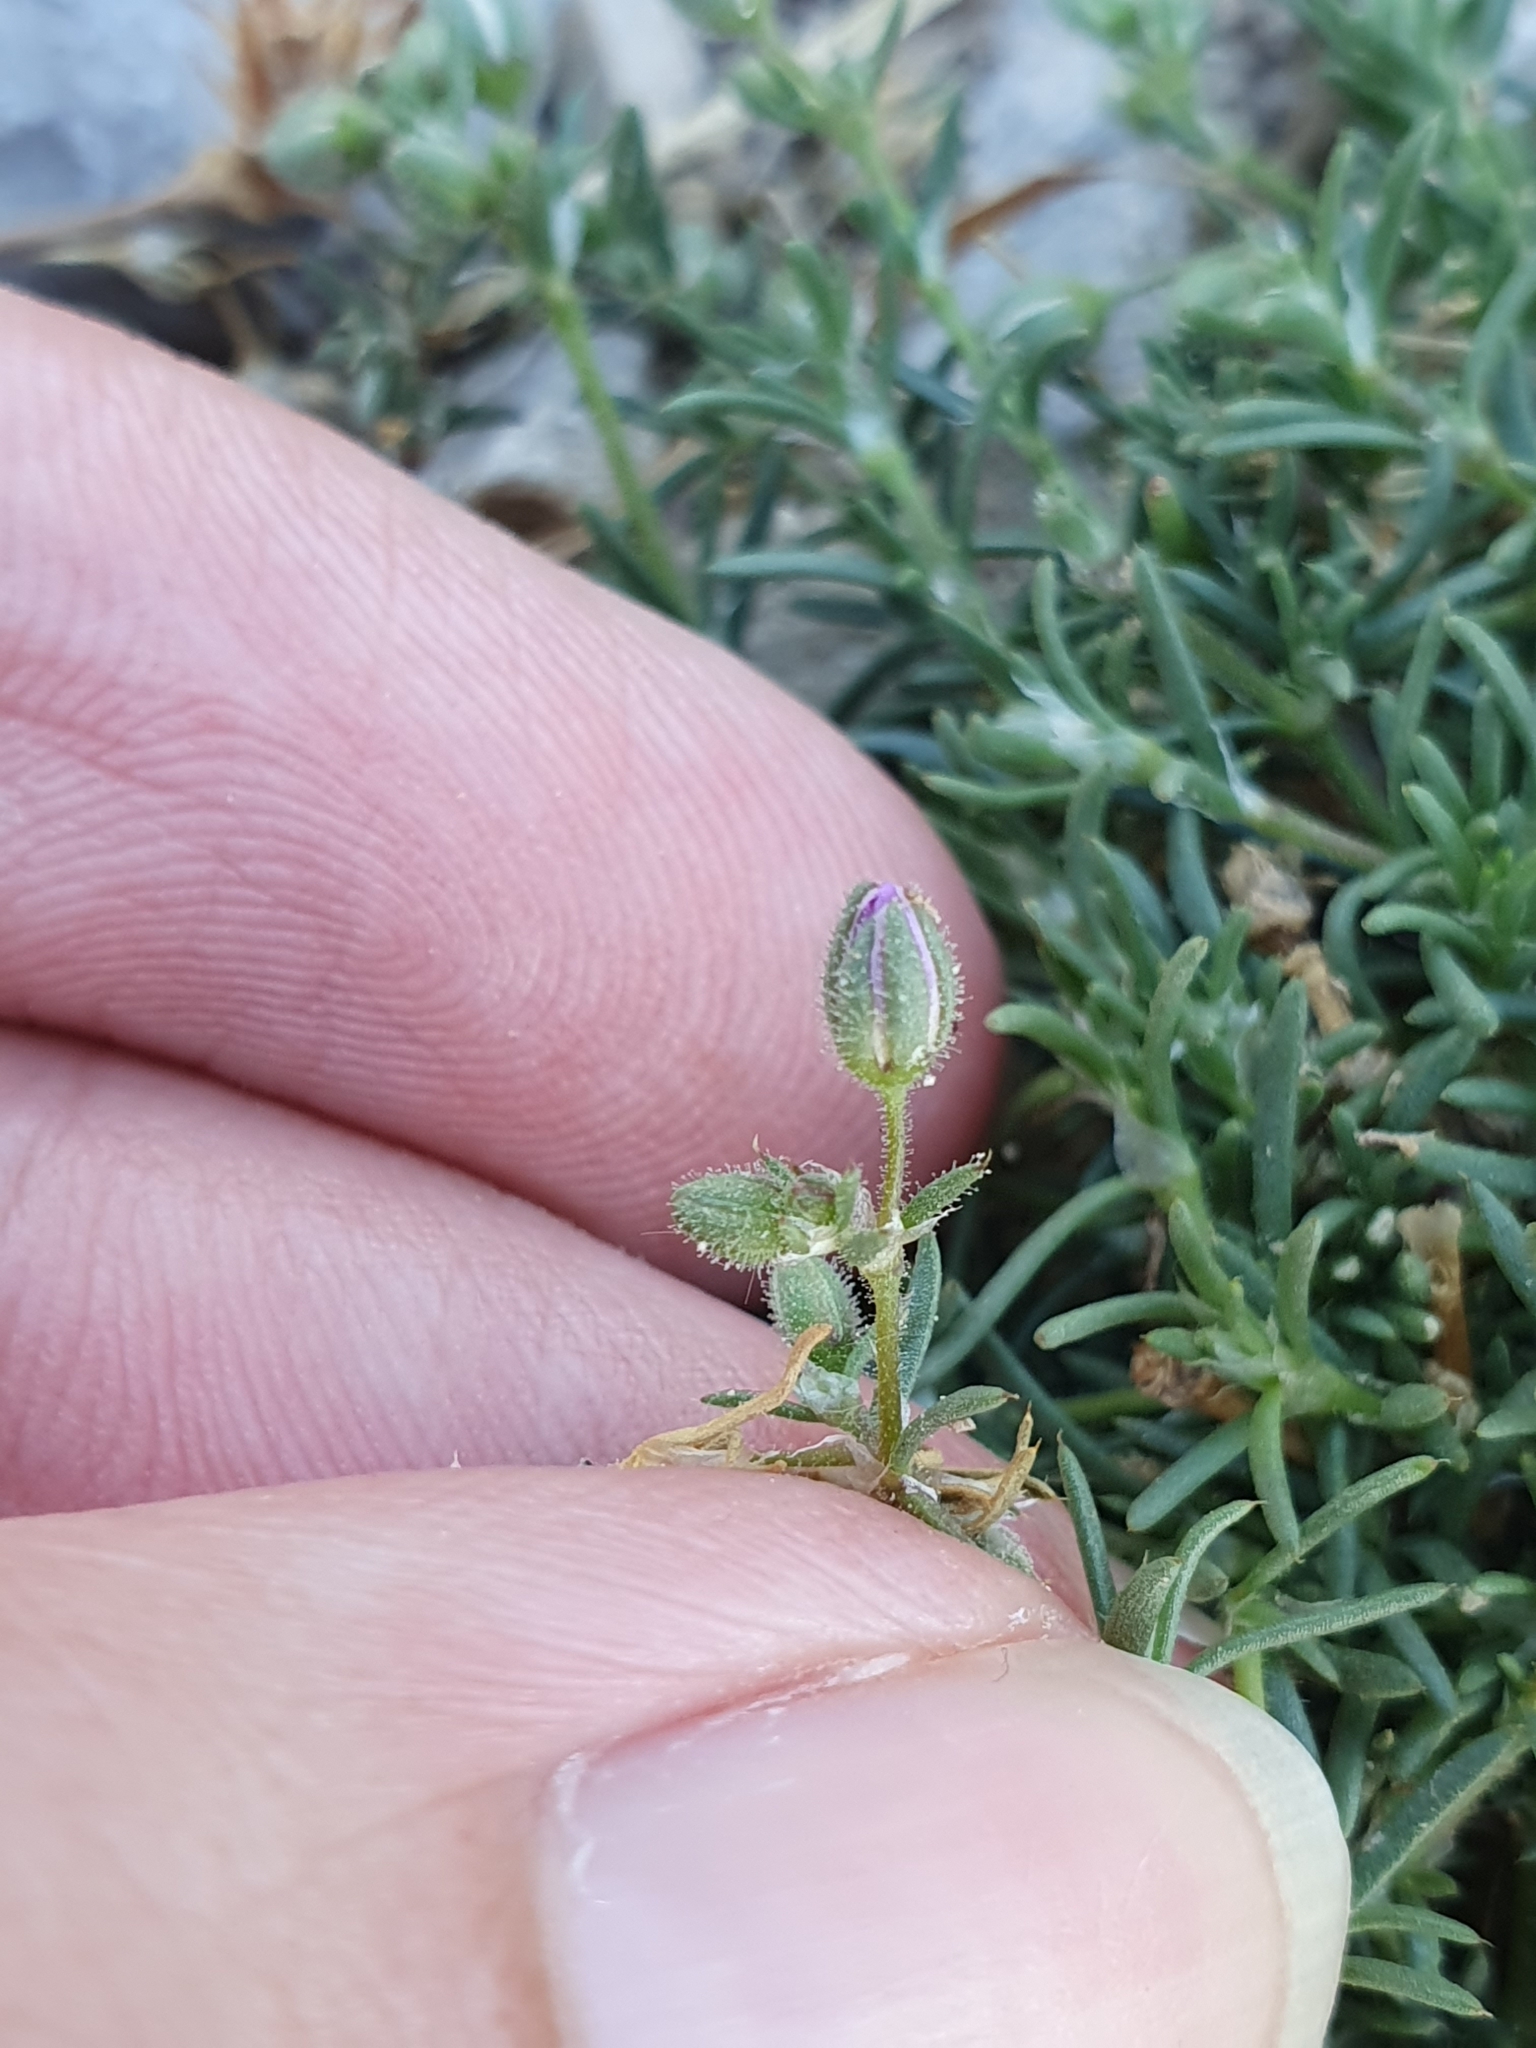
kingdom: Plantae
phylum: Tracheophyta
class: Magnoliopsida
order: Caryophyllales
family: Caryophyllaceae
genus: Spergularia
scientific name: Spergularia rubra
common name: Red sand-spurrey
